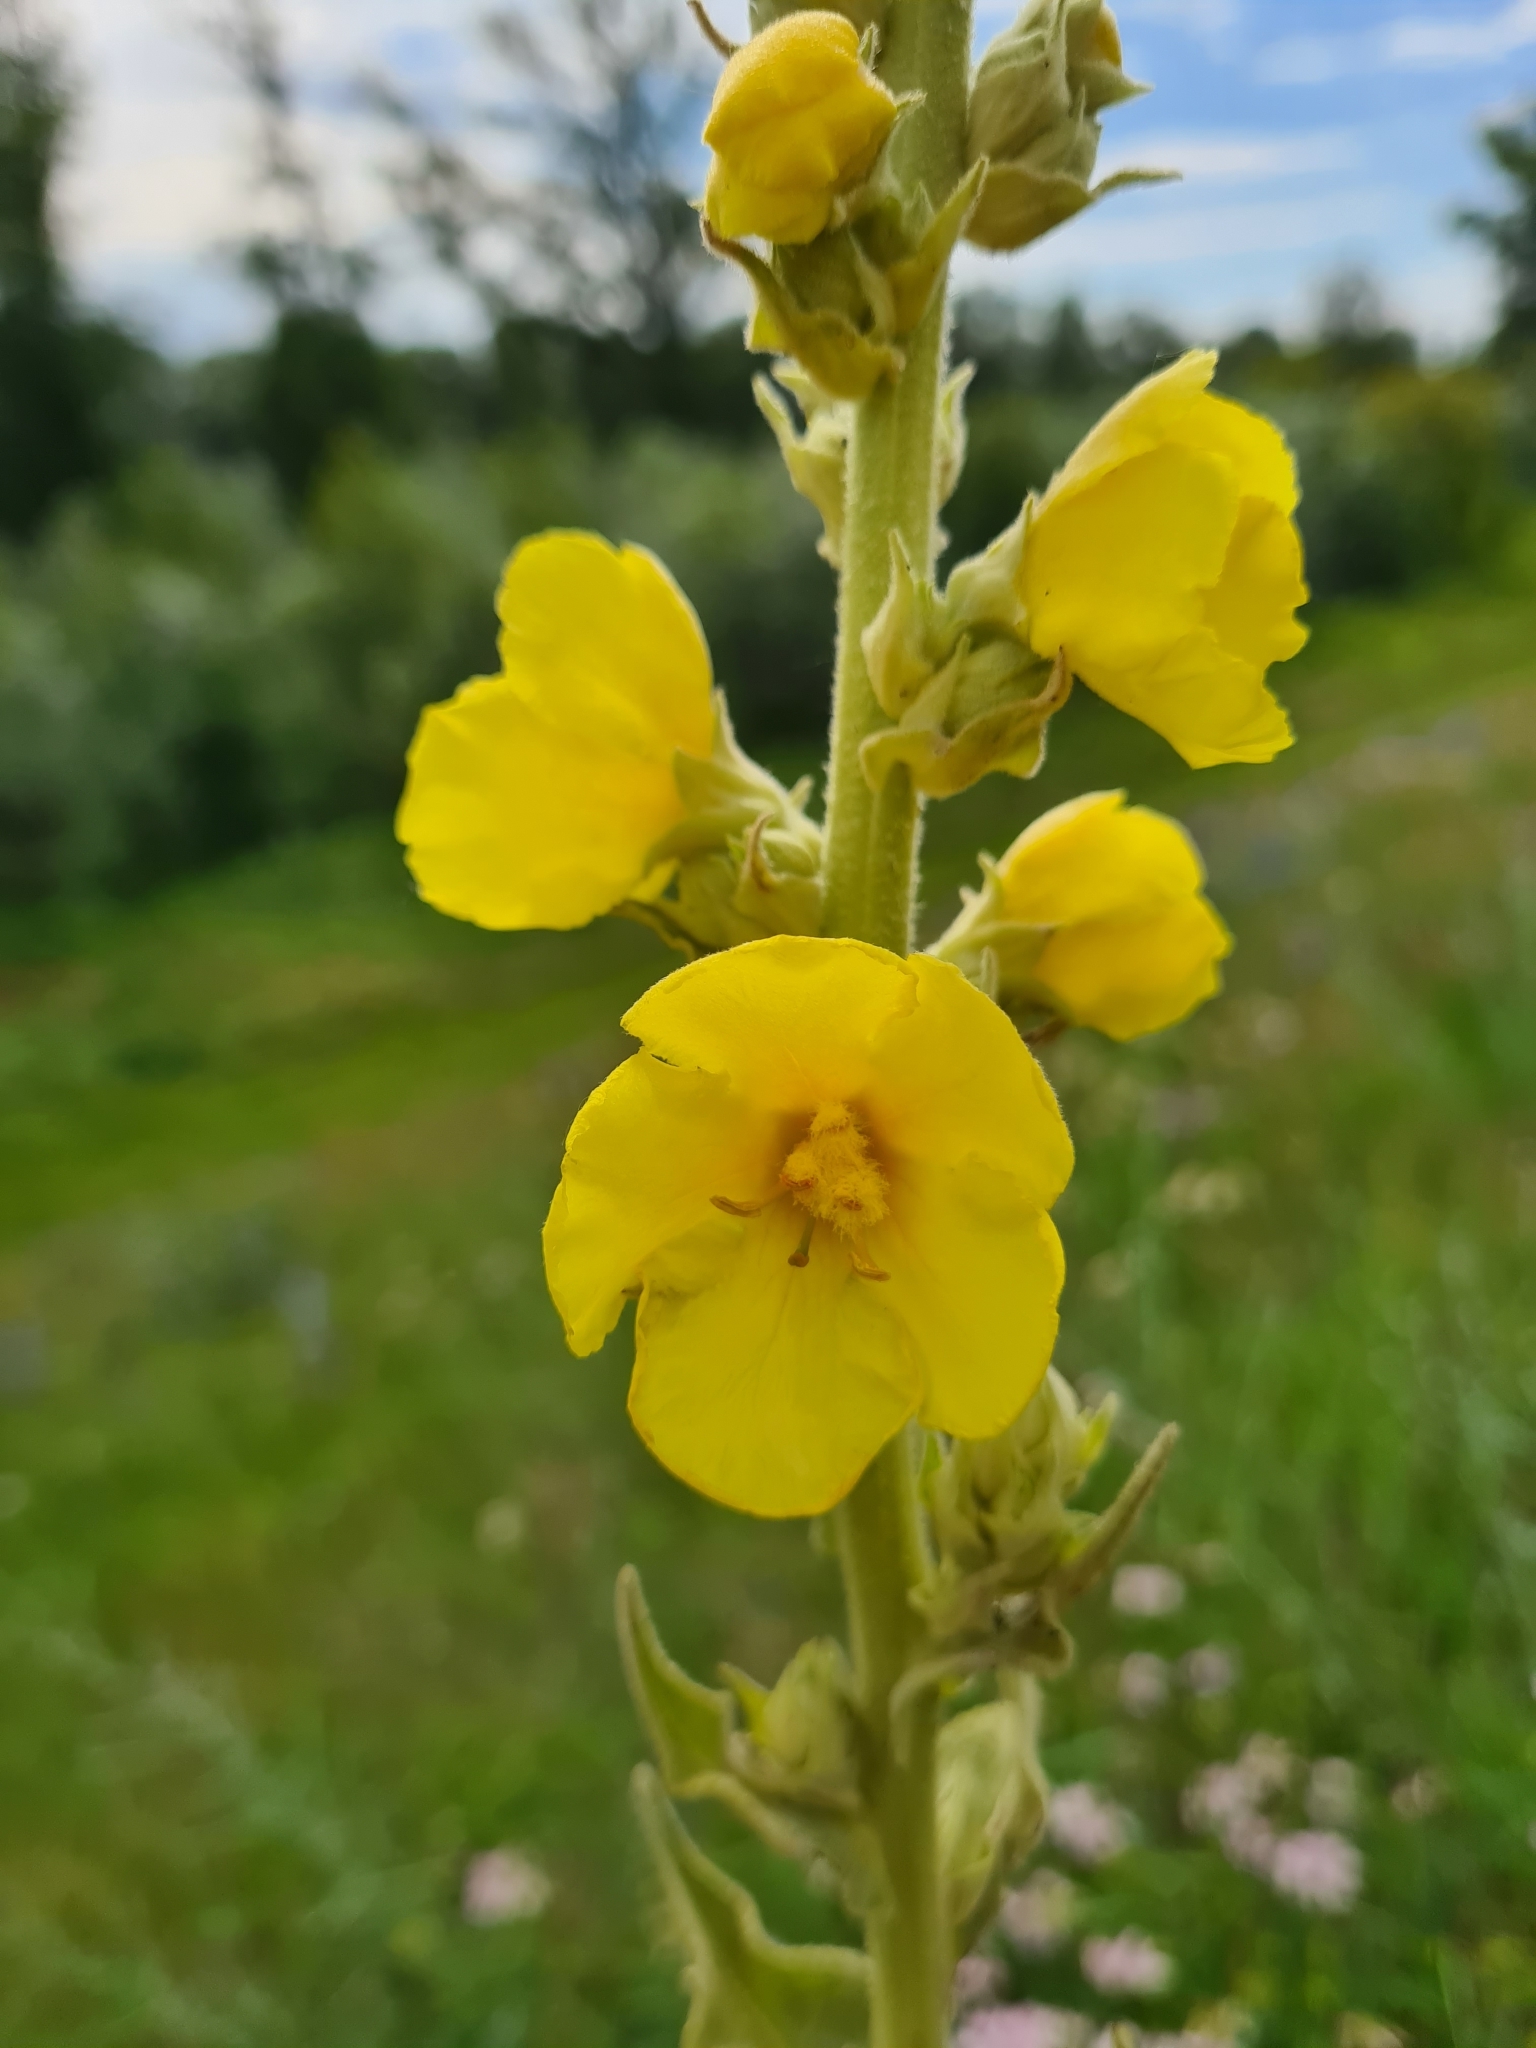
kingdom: Plantae
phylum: Tracheophyta
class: Magnoliopsida
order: Lamiales
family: Scrophulariaceae
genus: Verbascum
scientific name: Verbascum phlomoides
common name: Orange mullein
